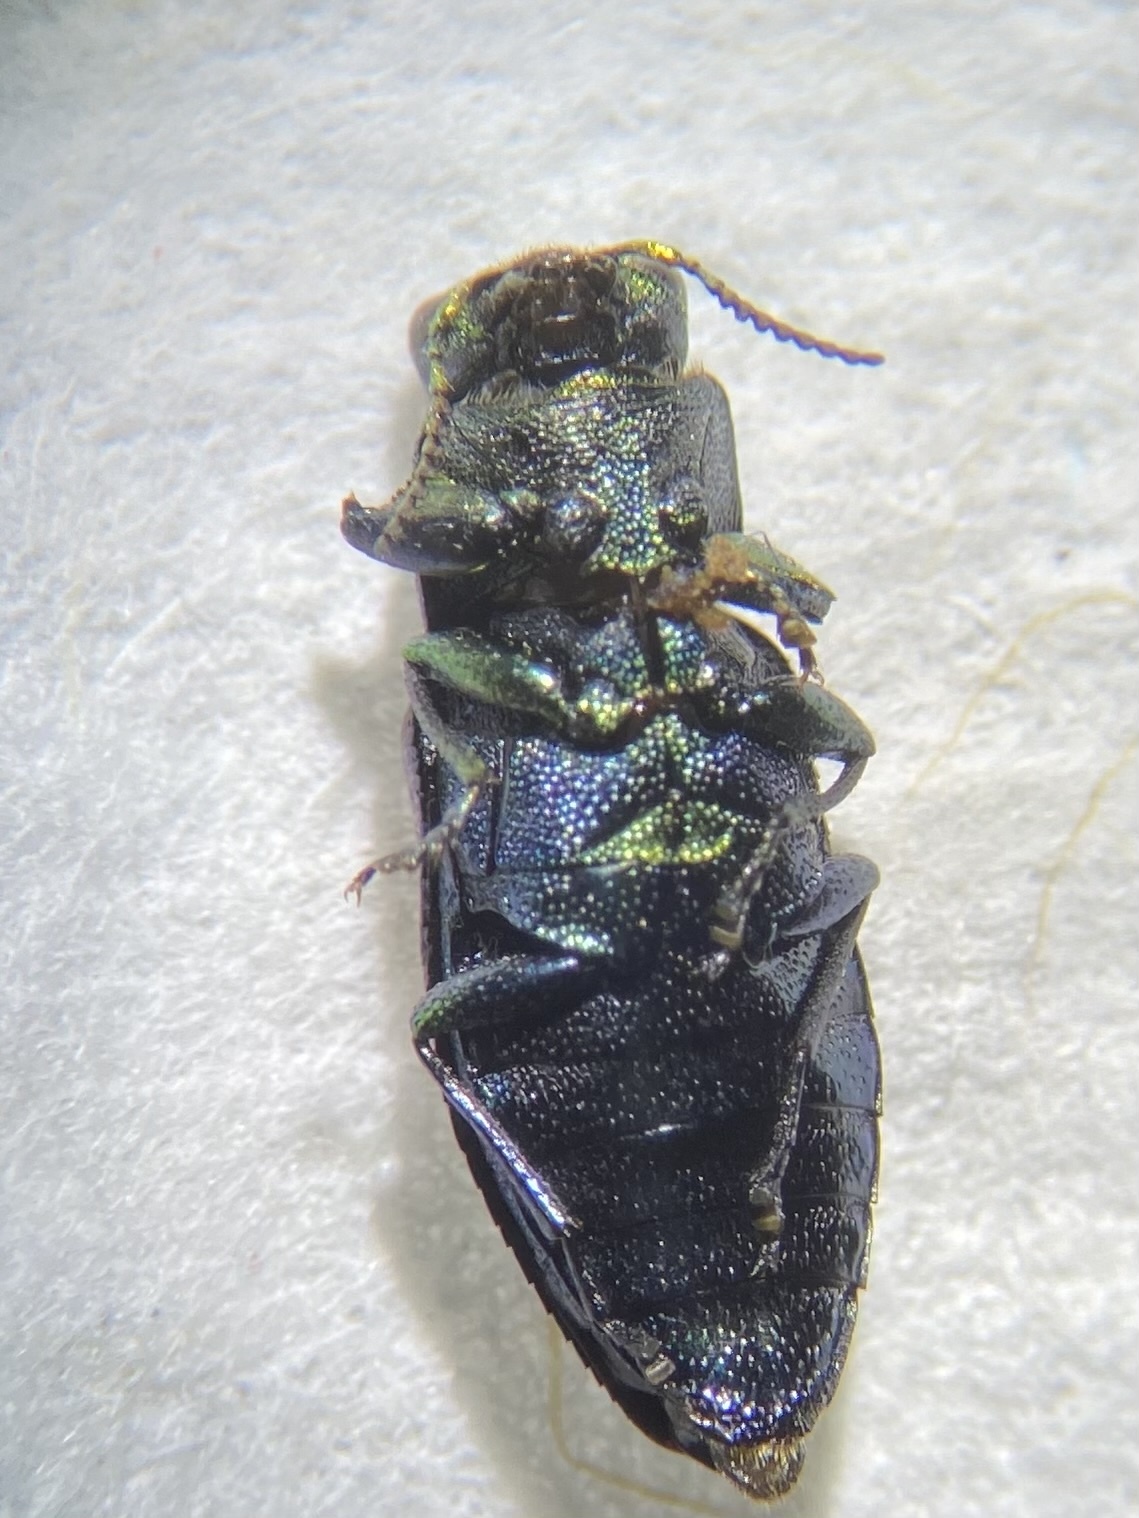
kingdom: Animalia
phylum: Arthropoda
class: Insecta
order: Coleoptera
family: Buprestidae
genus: Chrysobothris
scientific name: Chrysobothris chlorocephala
